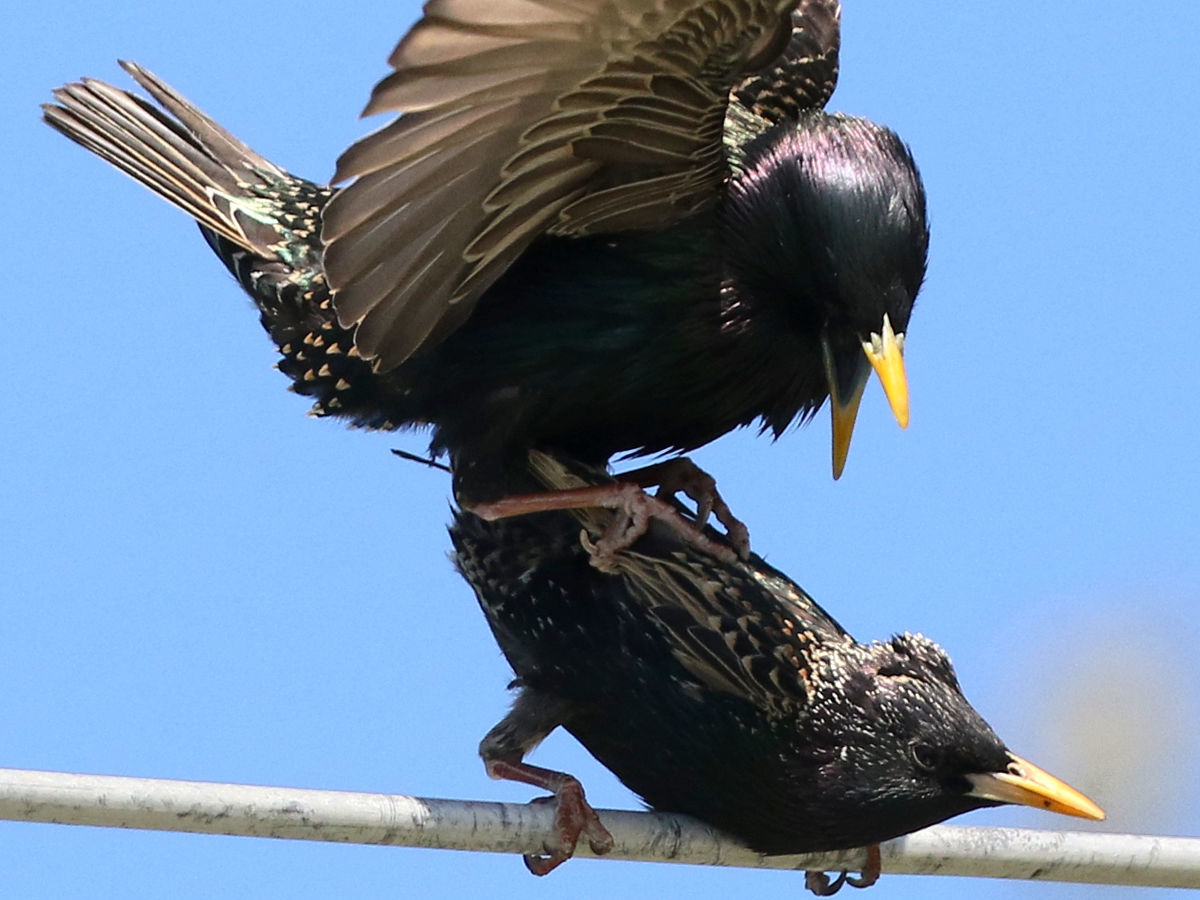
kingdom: Animalia
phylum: Chordata
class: Aves
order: Passeriformes
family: Sturnidae
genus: Sturnus
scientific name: Sturnus vulgaris
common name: Common starling
